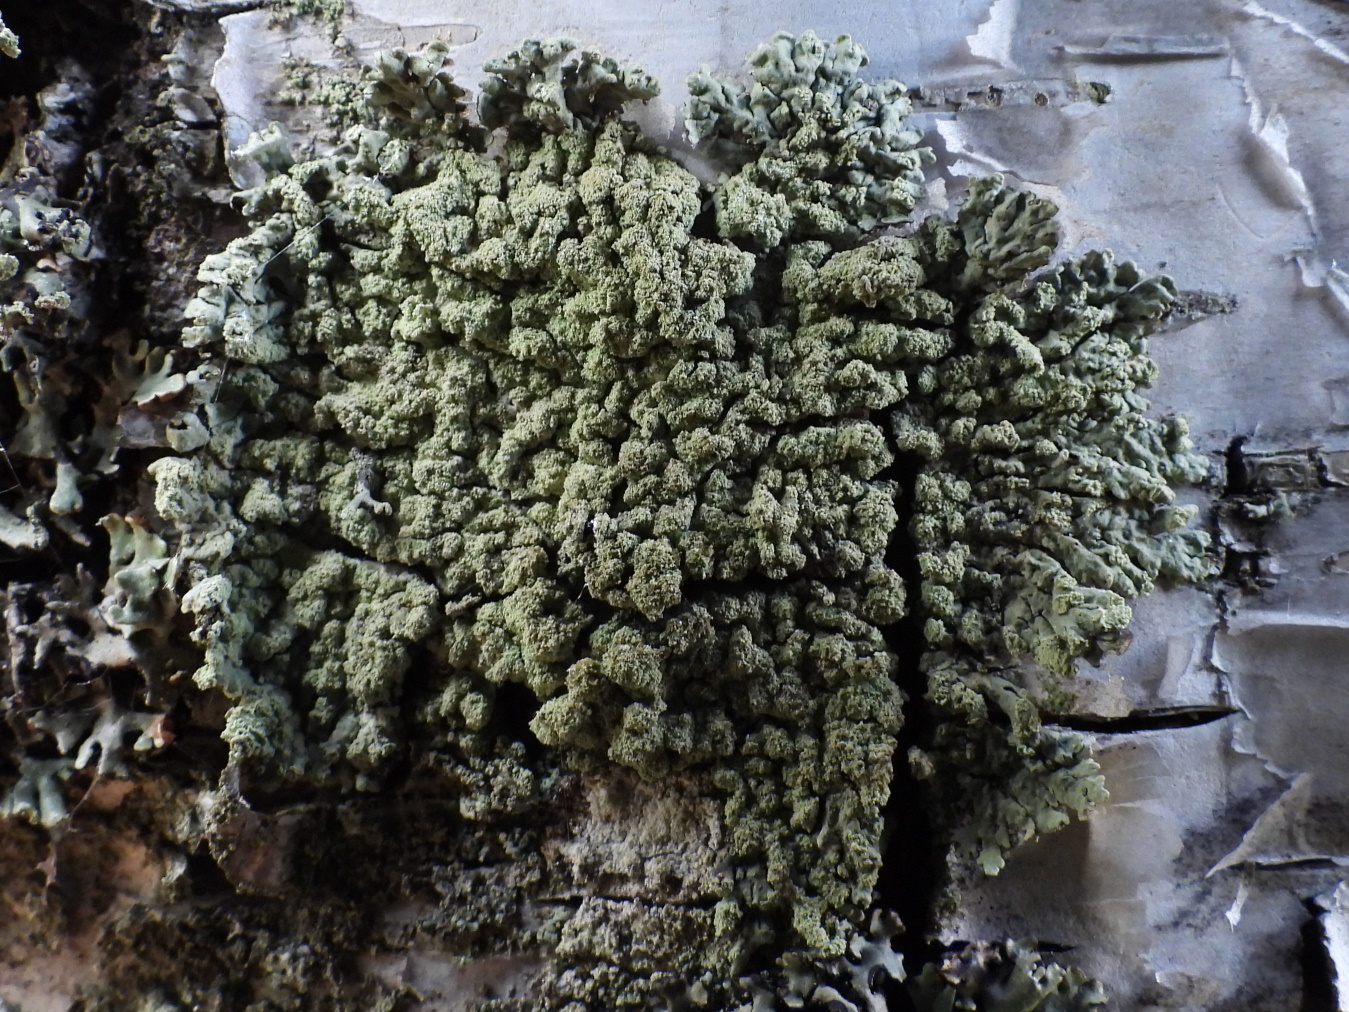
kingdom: Fungi
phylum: Ascomycota
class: Lecanoromycetes
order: Lecanorales
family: Parmeliaceae
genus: Hypogymnia
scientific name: Hypogymnia farinacea
